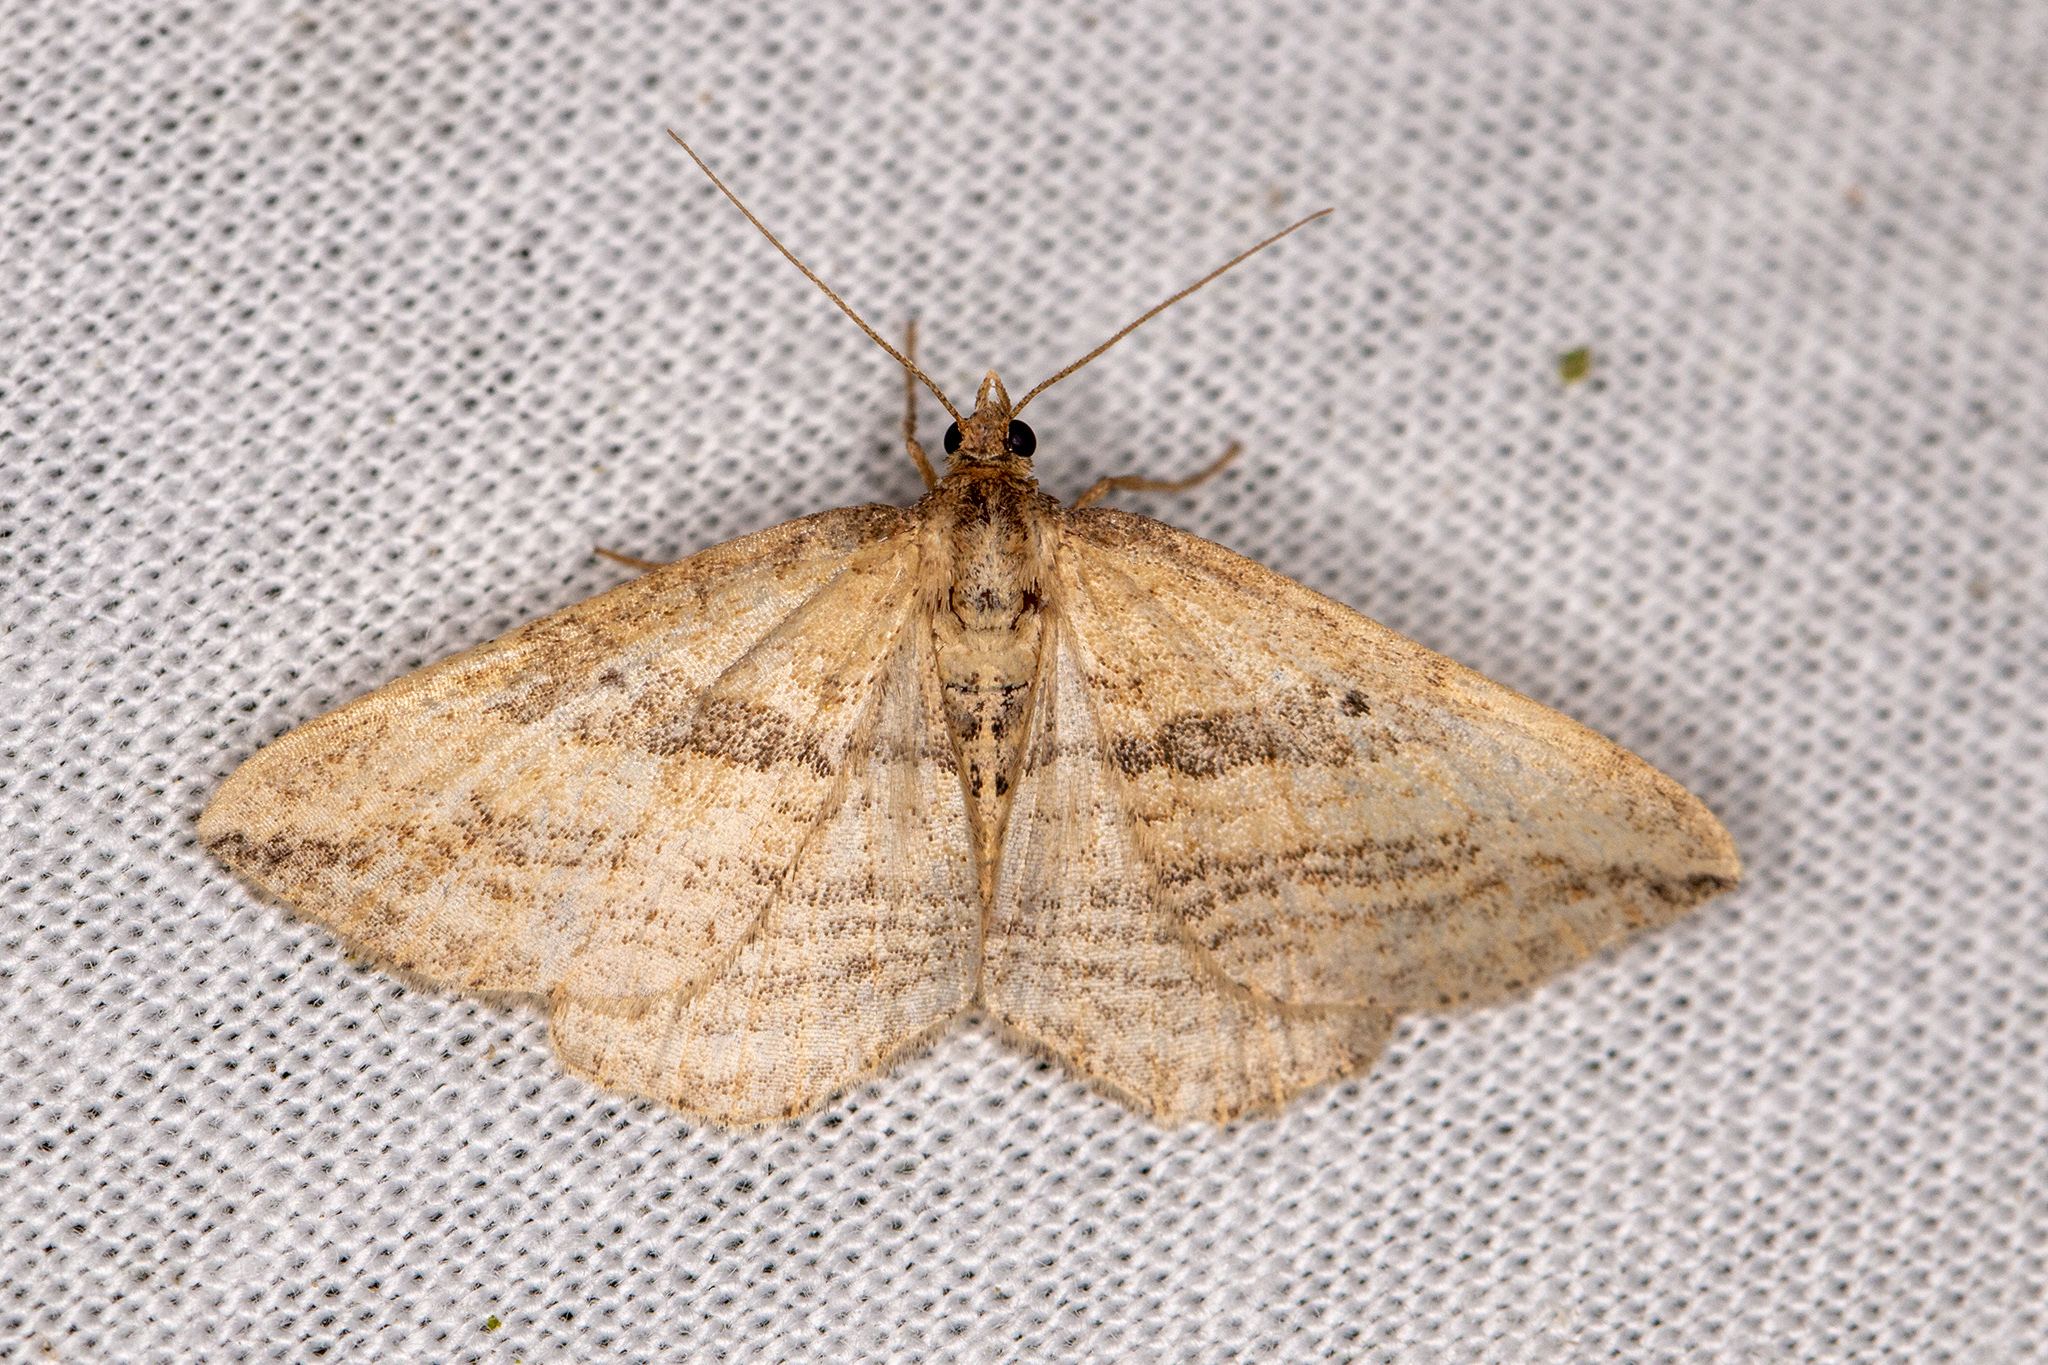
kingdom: Animalia
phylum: Arthropoda
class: Insecta
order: Lepidoptera
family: Geometridae
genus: Orthonama
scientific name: Orthonama vittata
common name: Oblique carpet
